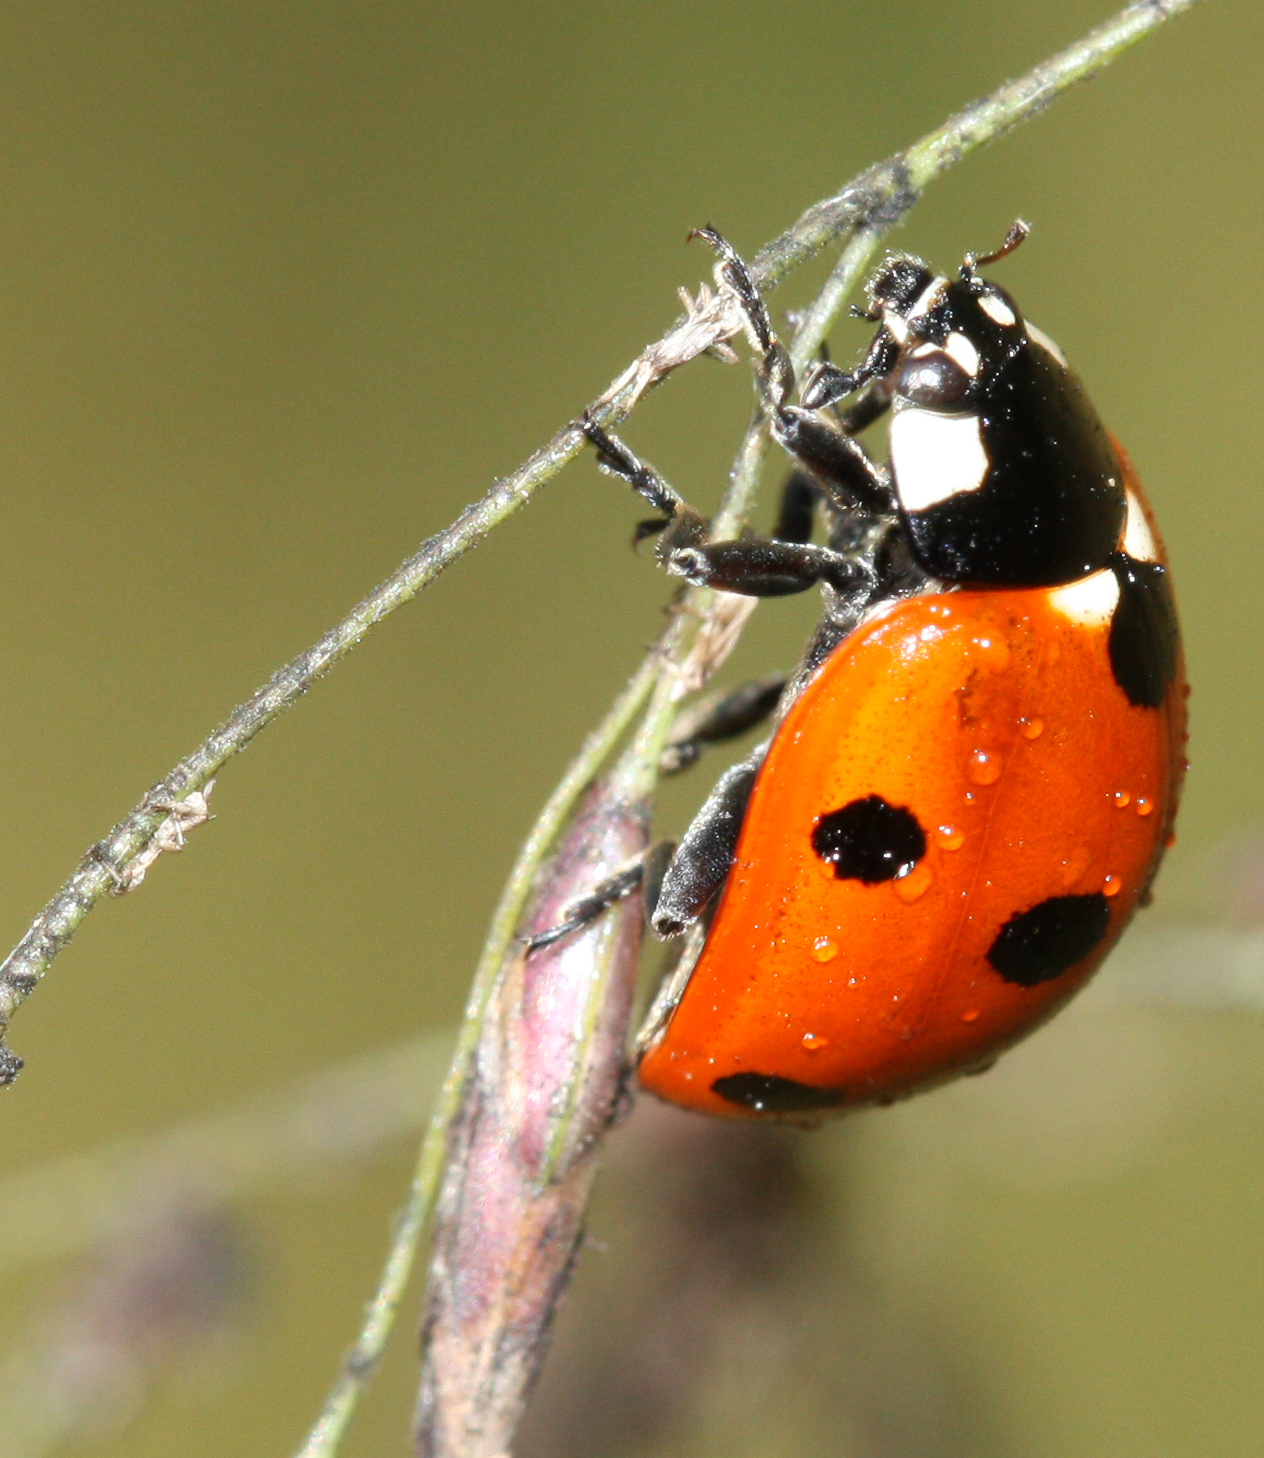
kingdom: Animalia
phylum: Arthropoda
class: Insecta
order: Coleoptera
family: Coccinellidae
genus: Coccinella
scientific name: Coccinella septempunctata
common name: Sevenspotted lady beetle
